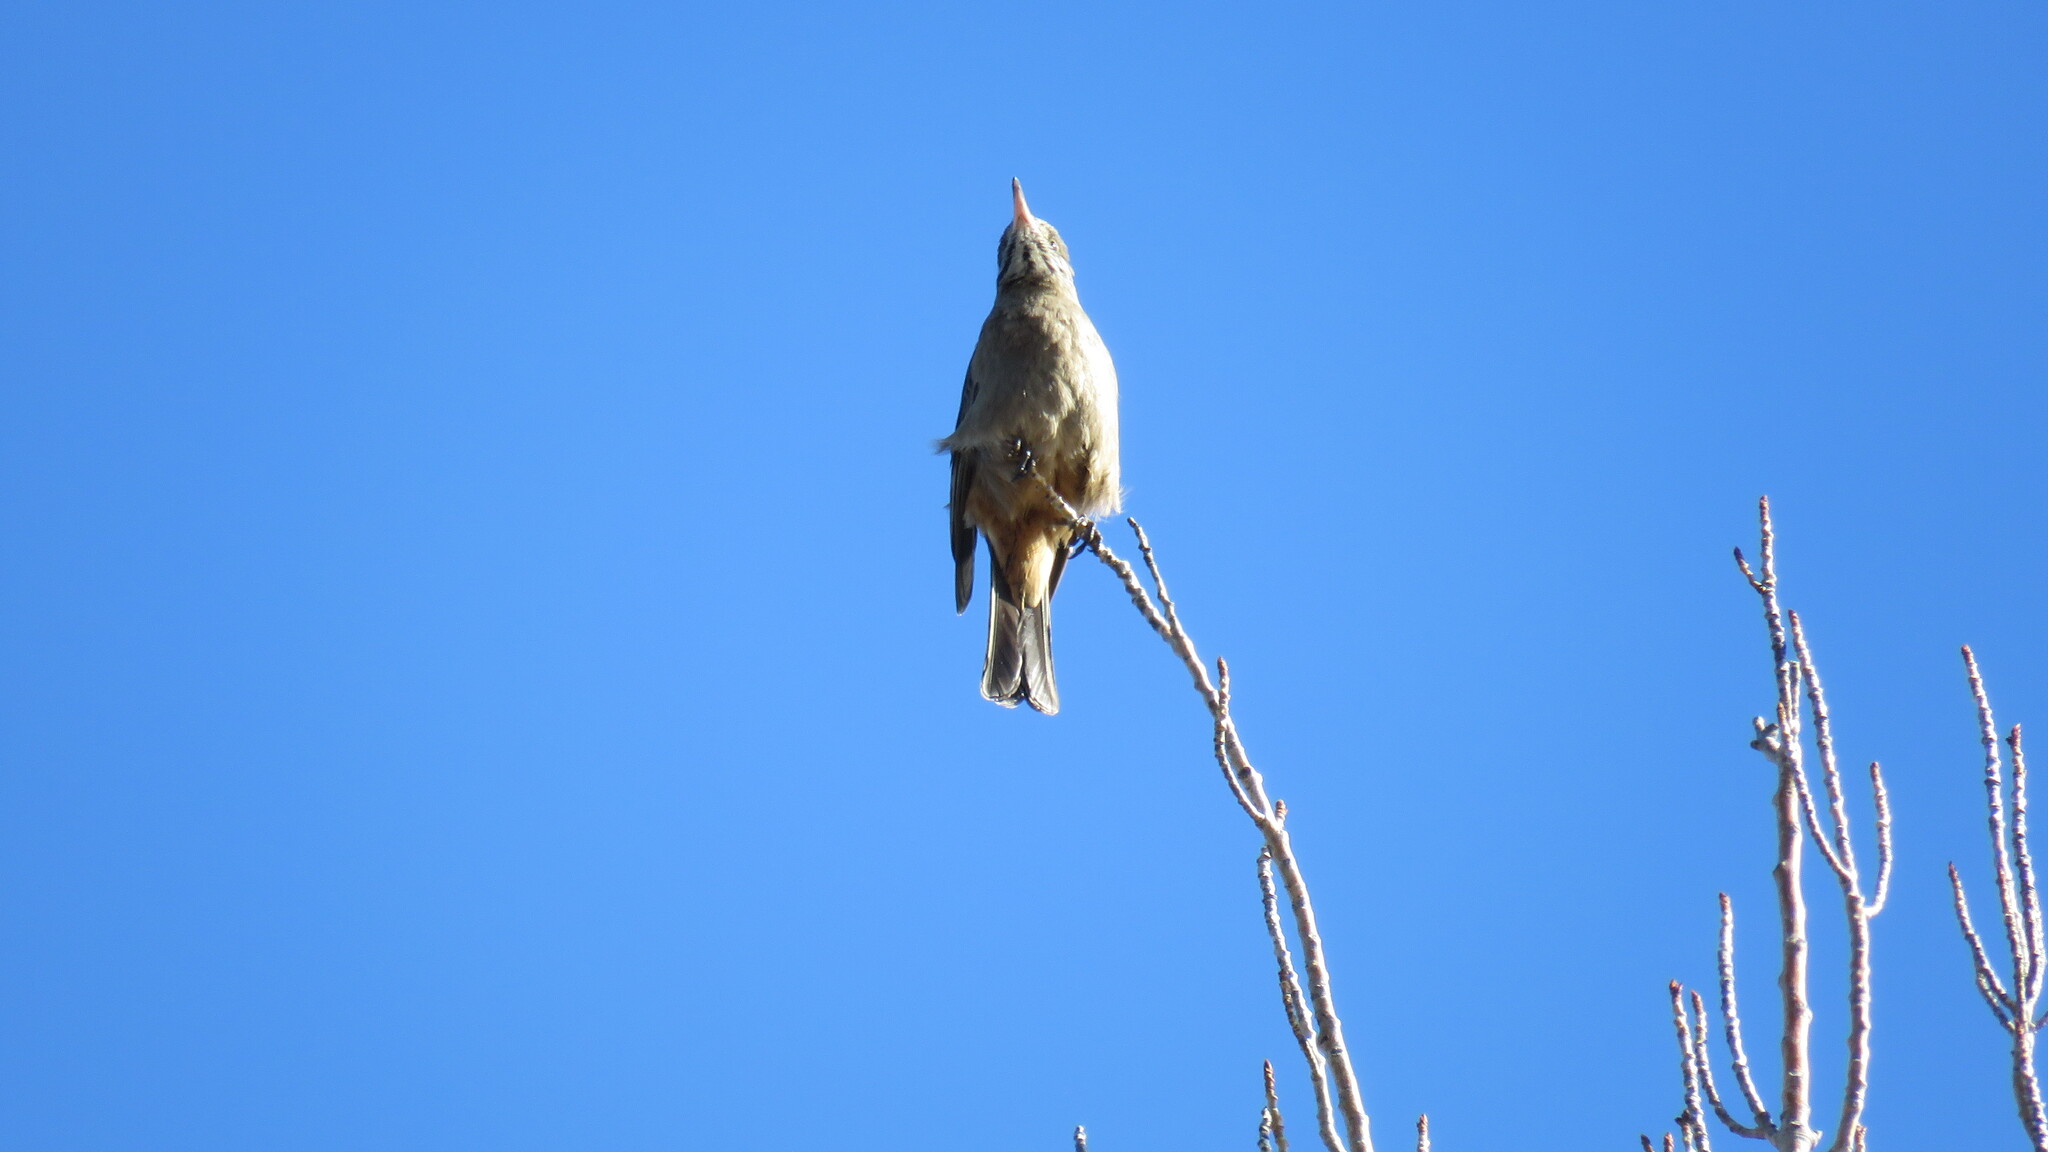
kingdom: Animalia
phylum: Chordata
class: Aves
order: Passeriformes
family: Tyrannidae
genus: Agriornis
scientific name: Agriornis lividus
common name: Great shrike-tyrant
